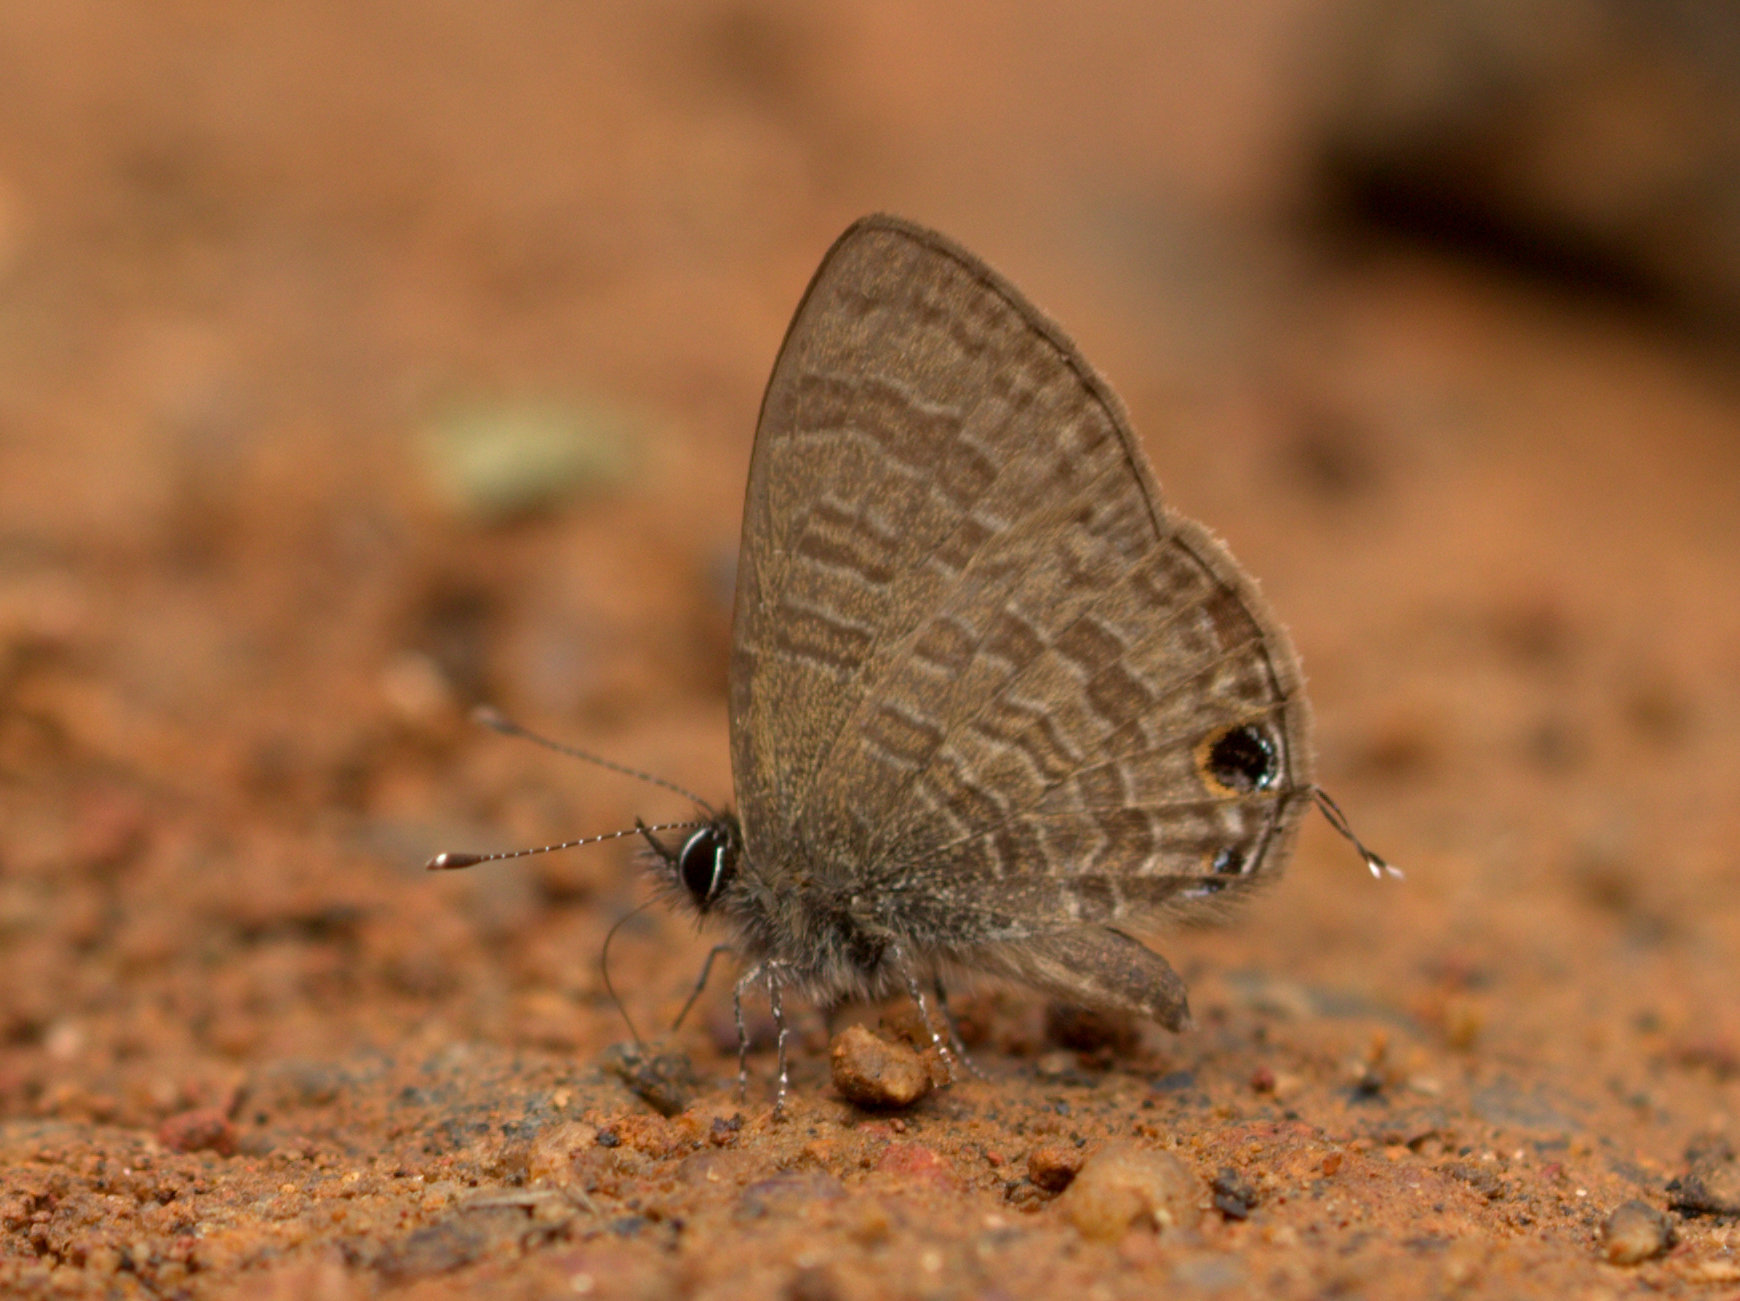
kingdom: Animalia
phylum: Arthropoda
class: Insecta
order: Lepidoptera
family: Lycaenidae
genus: Prosotas
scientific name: Prosotas nora
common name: Common line blue
